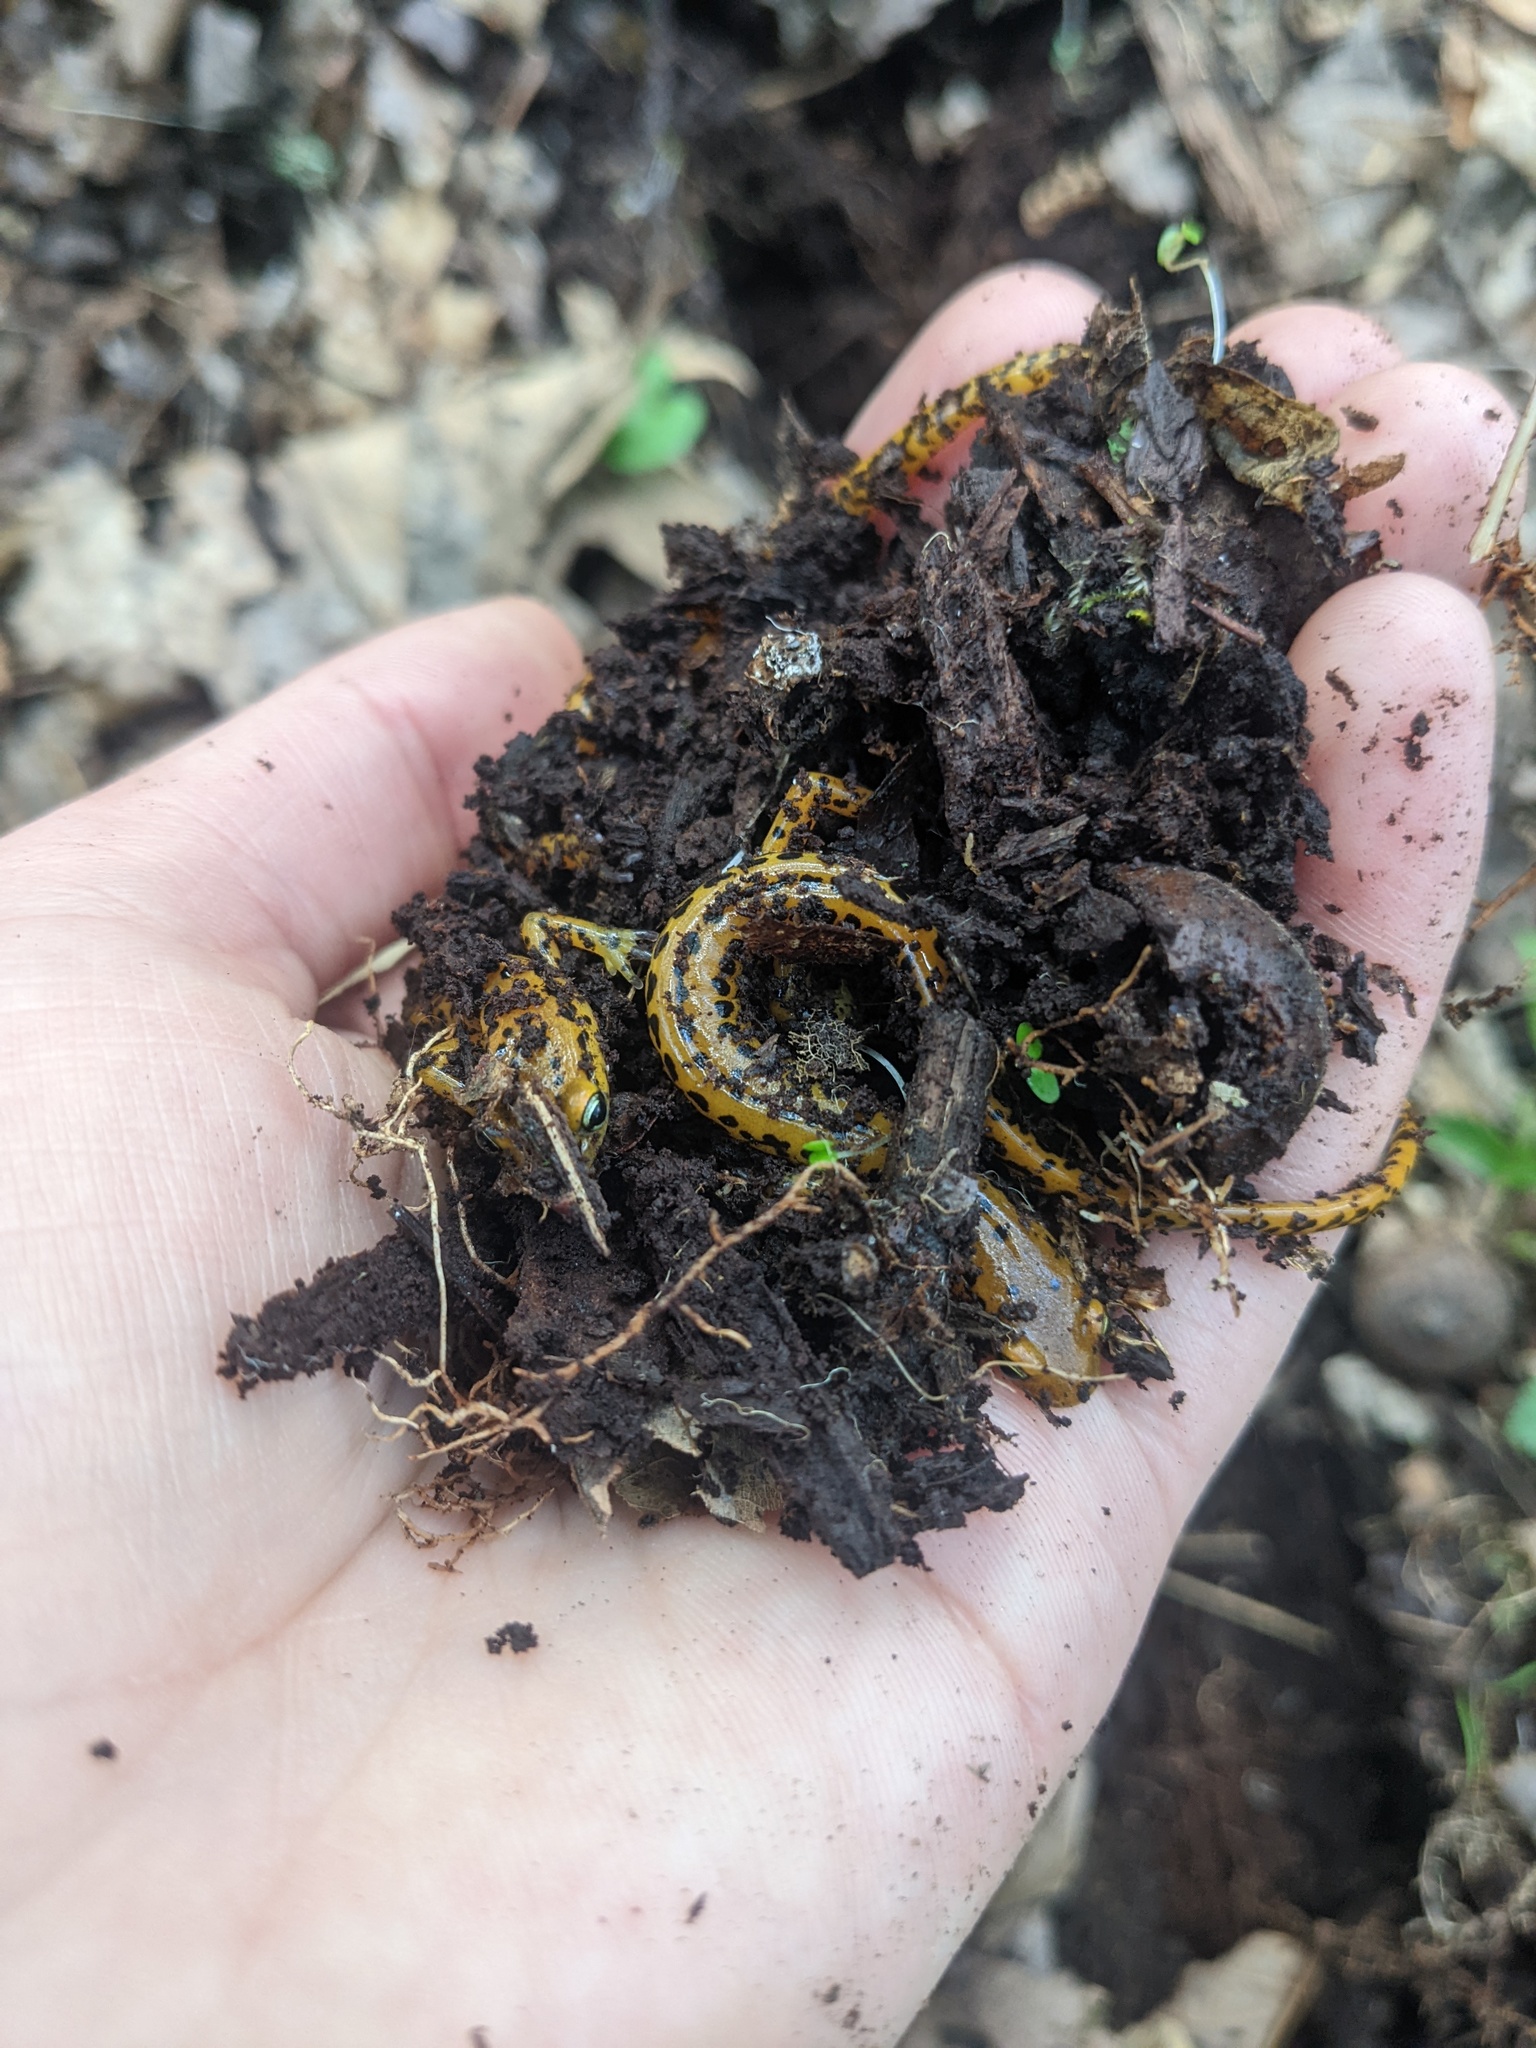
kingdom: Animalia
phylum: Chordata
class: Amphibia
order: Caudata
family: Plethodontidae
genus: Eurycea
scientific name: Eurycea longicauda
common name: Long-tailed salamander
